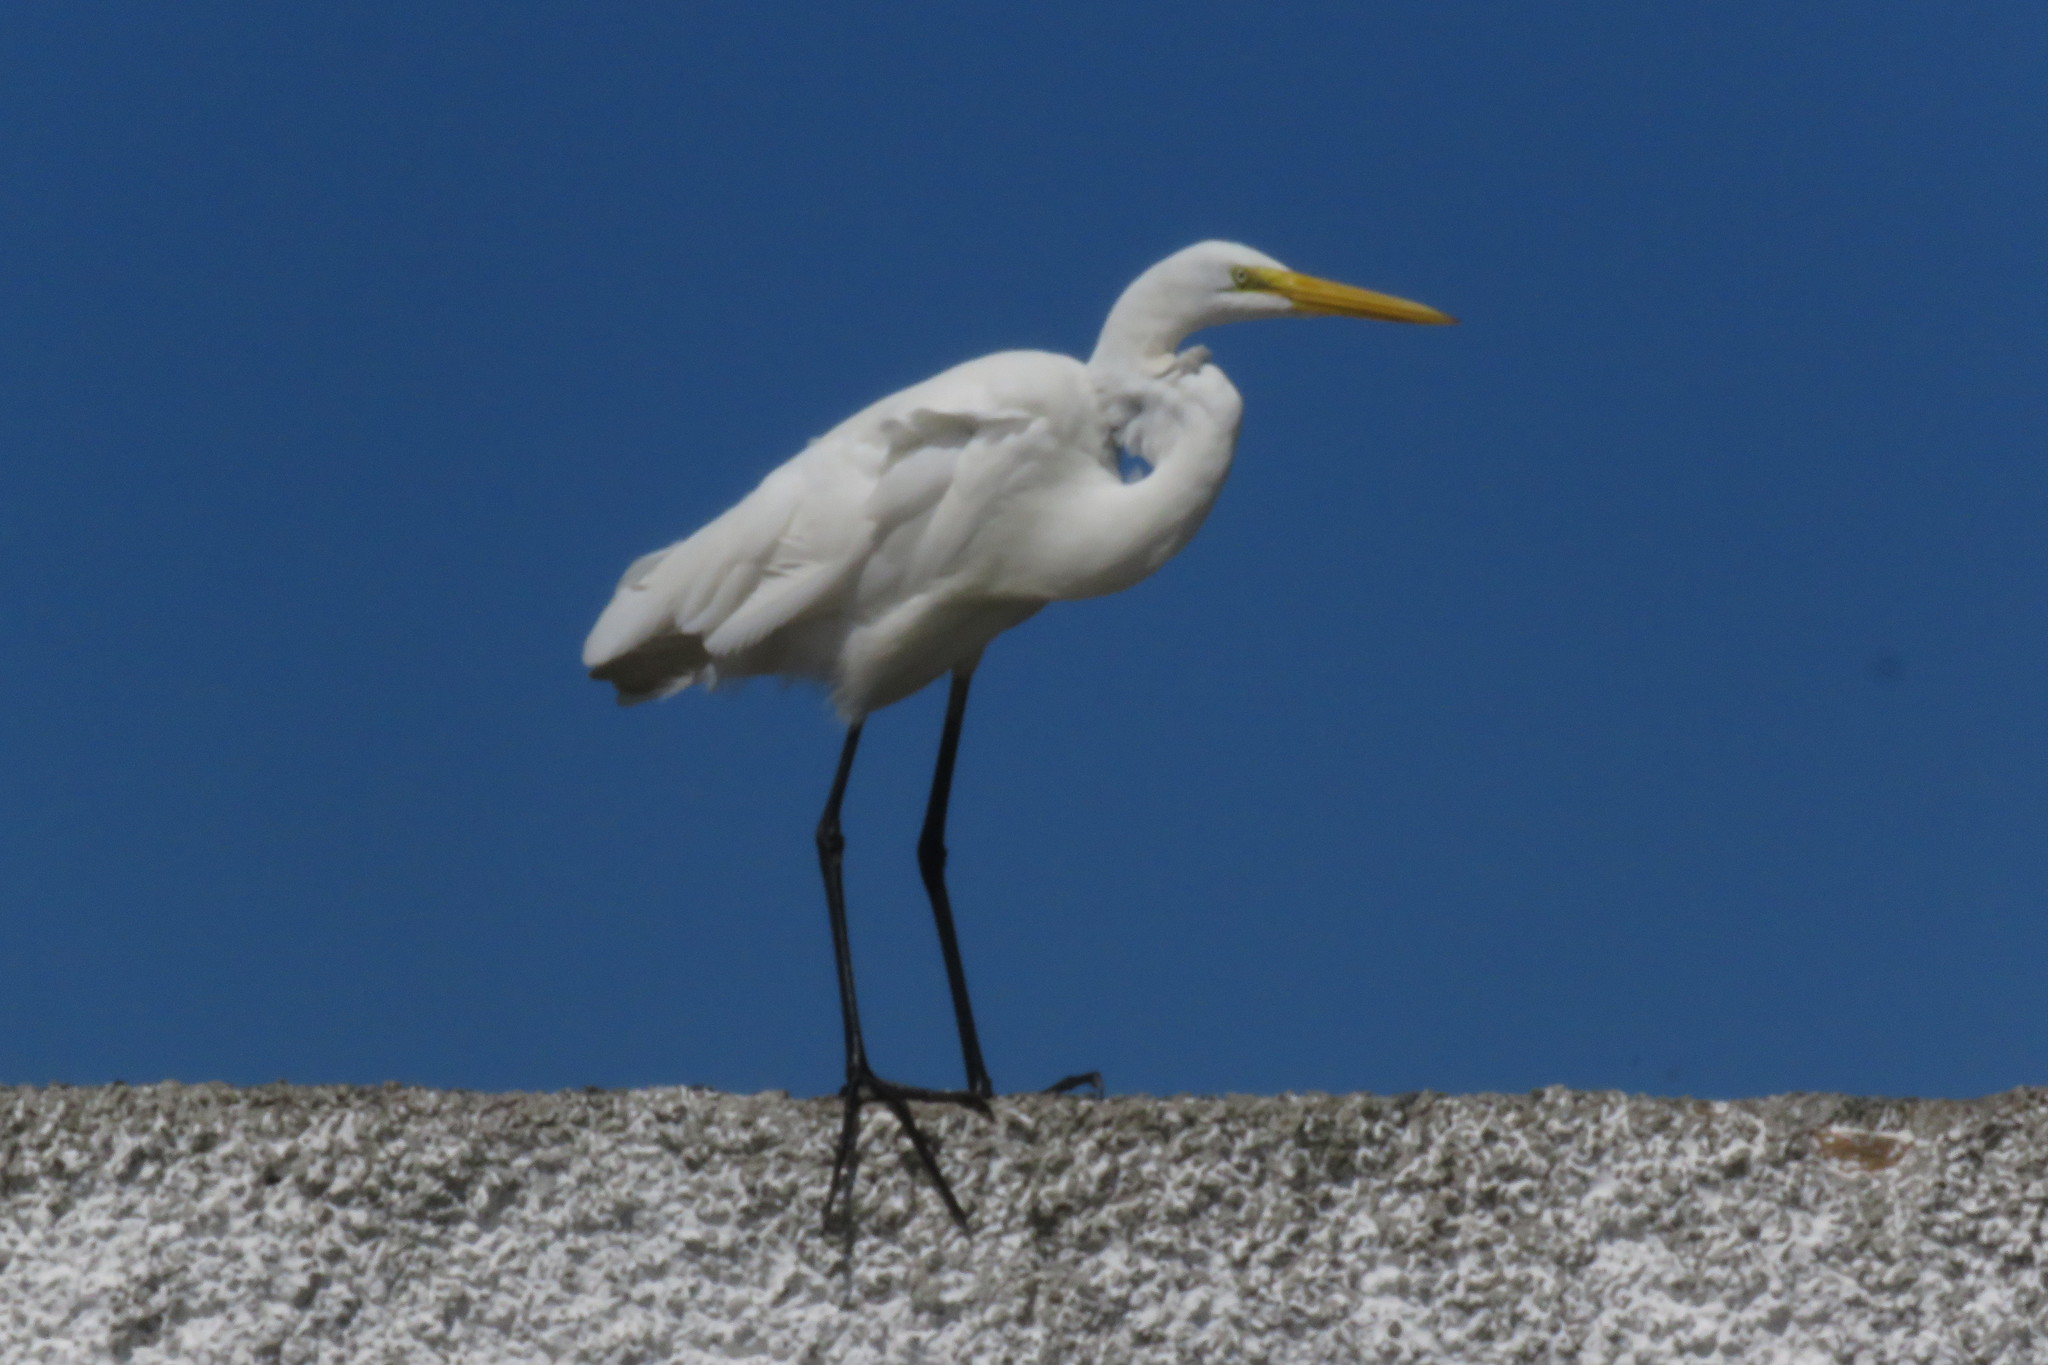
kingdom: Animalia
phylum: Chordata
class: Aves
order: Pelecaniformes
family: Ardeidae
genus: Ardea
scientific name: Ardea alba
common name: Great egret
